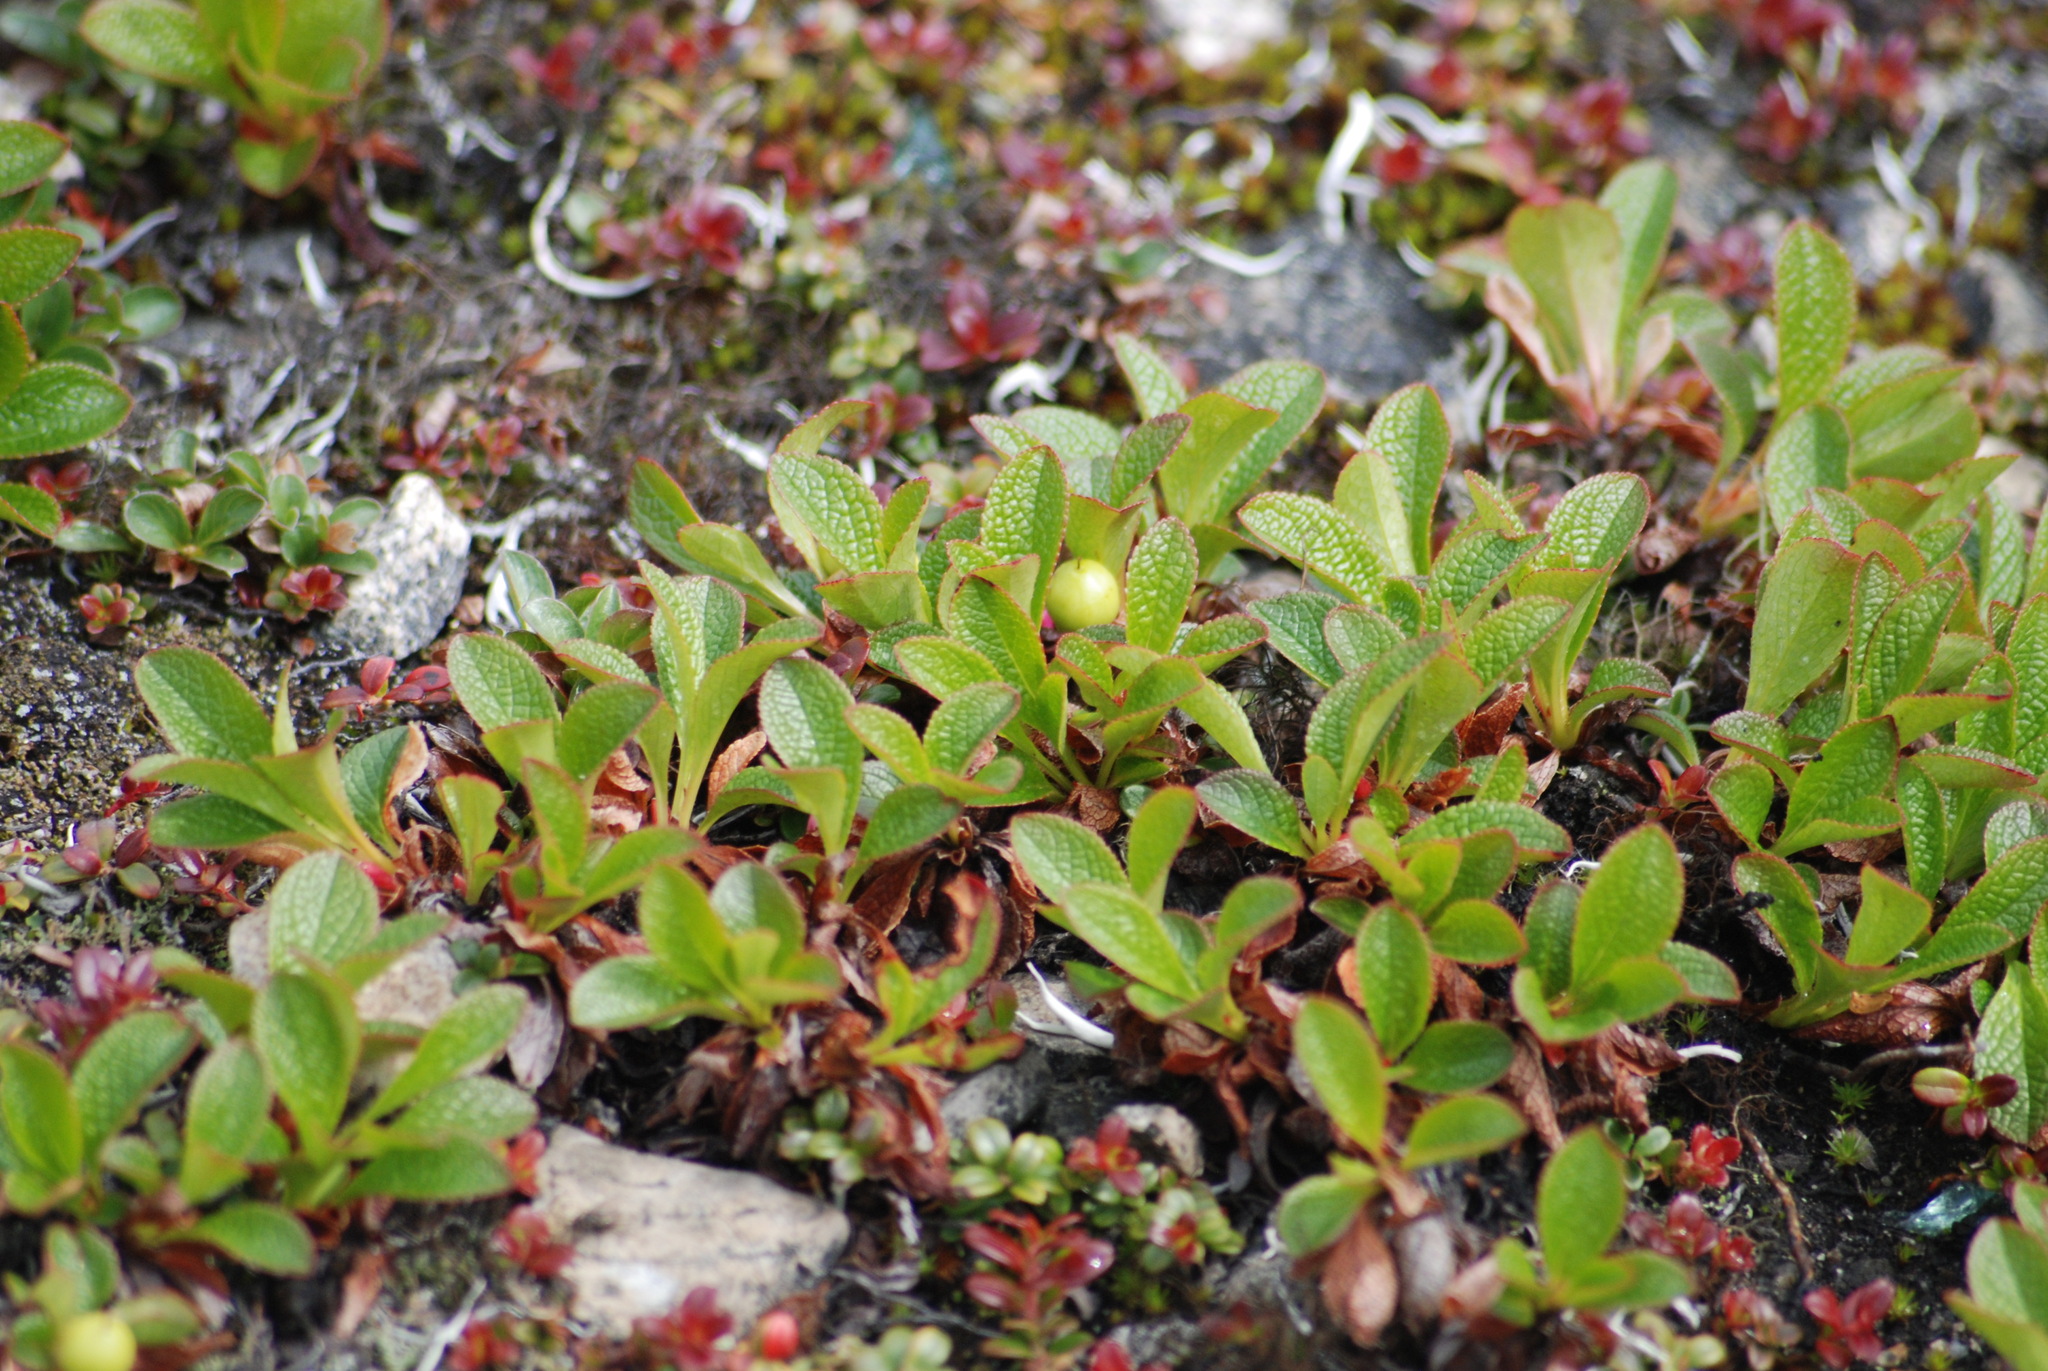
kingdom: Plantae
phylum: Tracheophyta
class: Magnoliopsida
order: Ericales
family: Ericaceae
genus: Arctostaphylos
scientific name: Arctostaphylos alpinus
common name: Alpine bearberry
